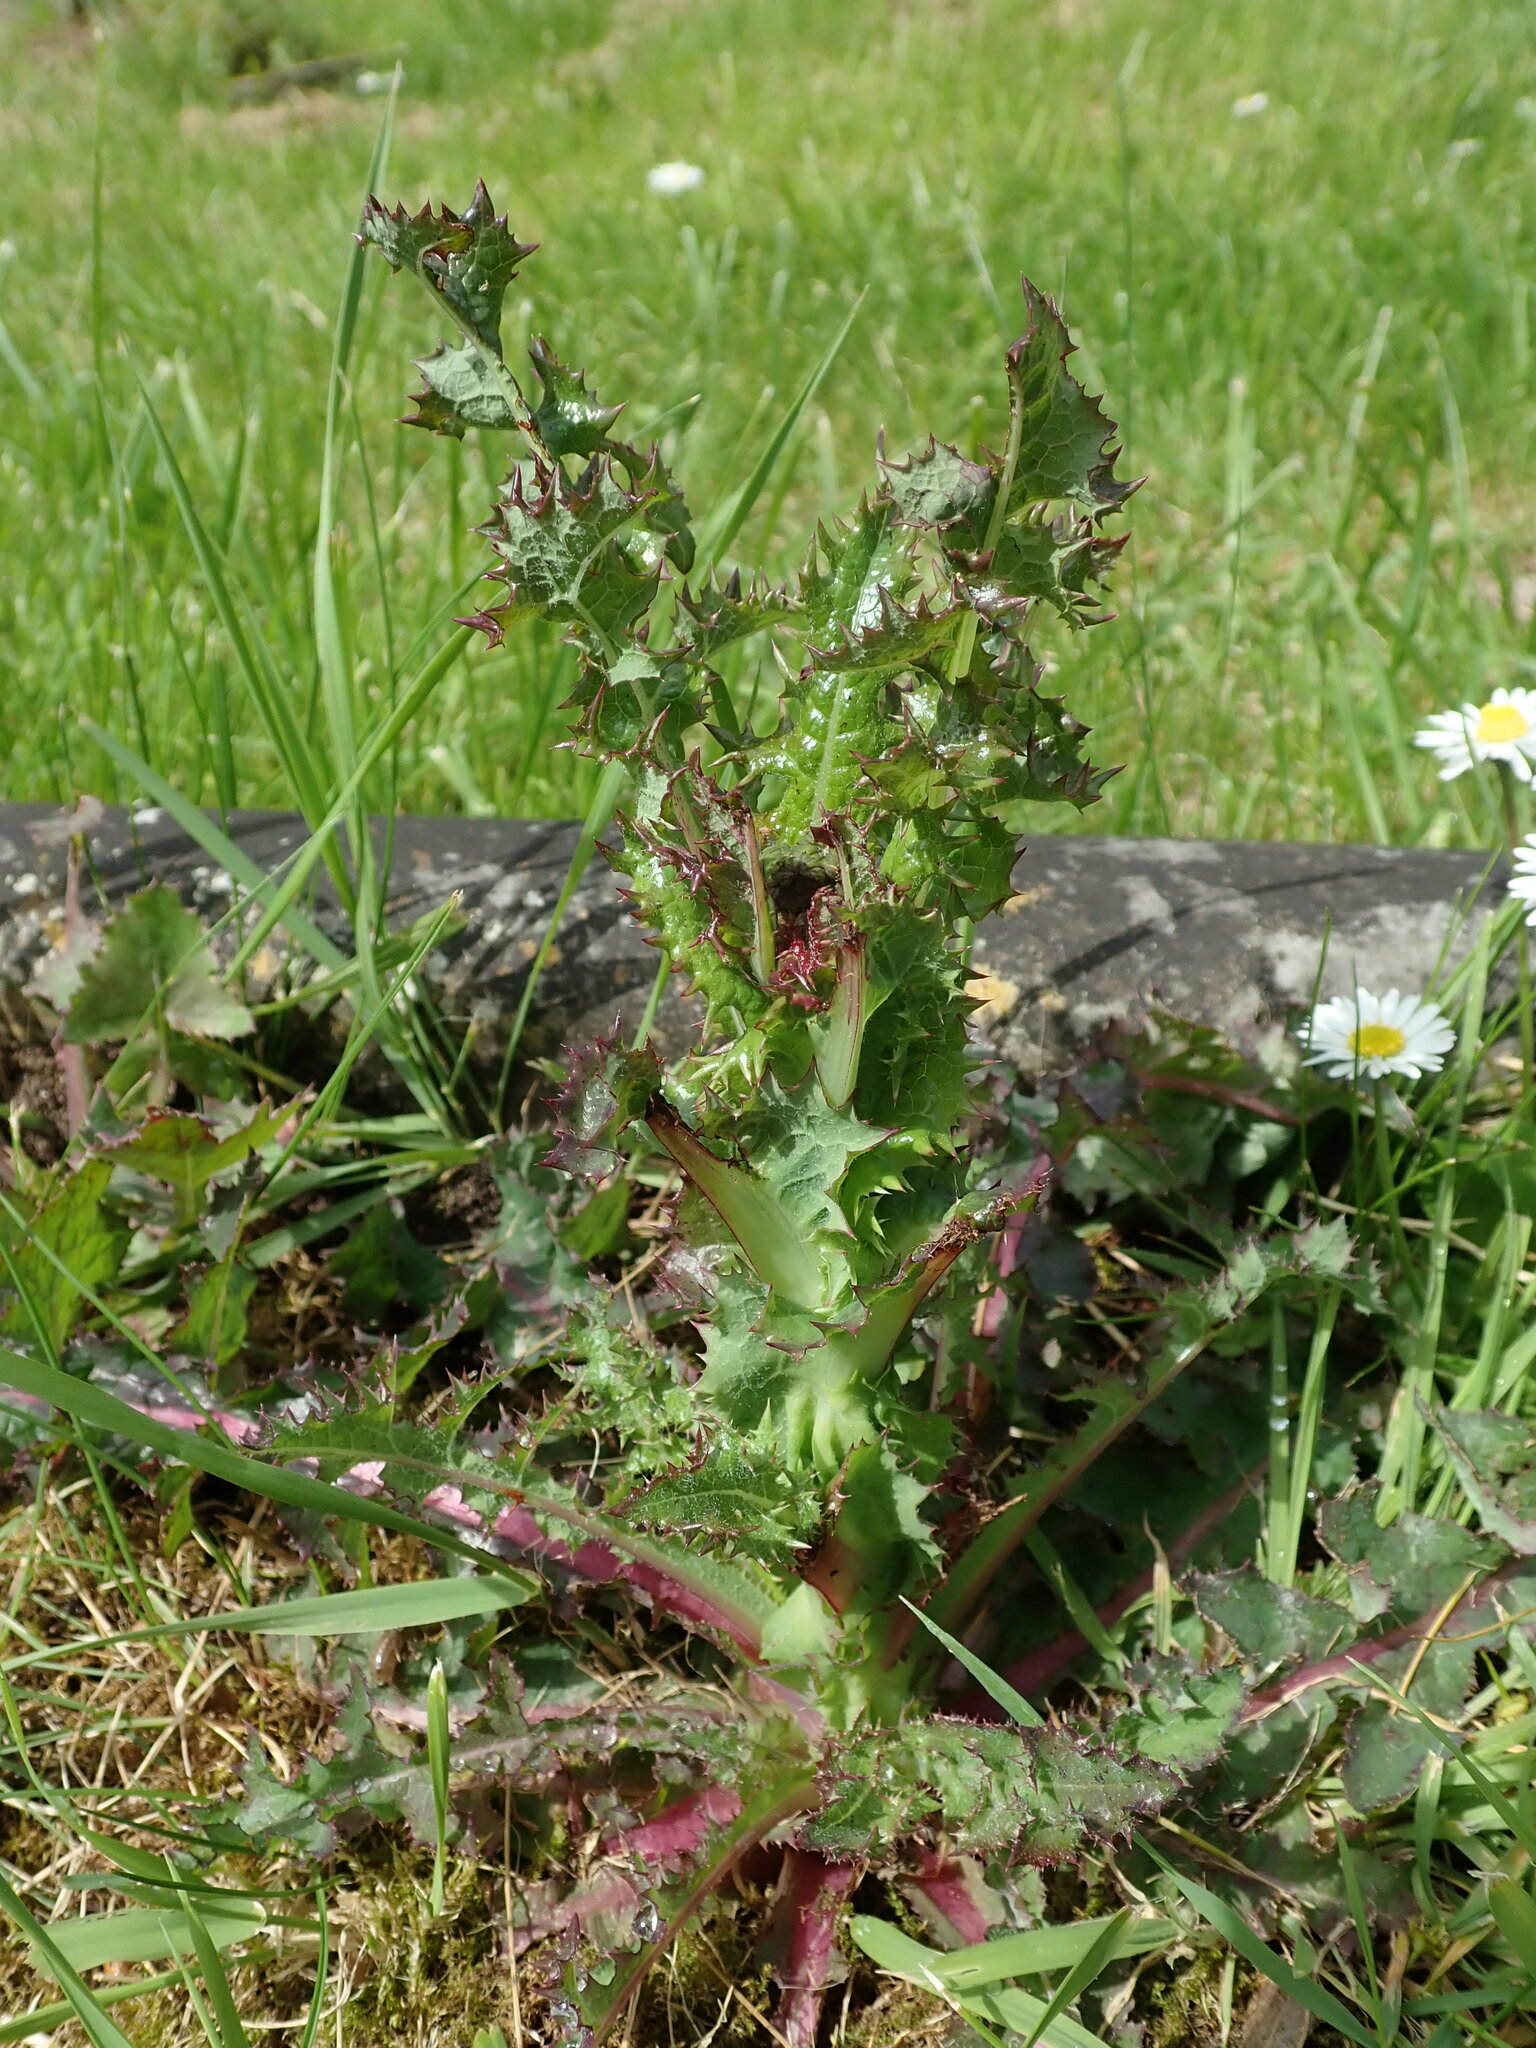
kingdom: Plantae
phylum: Tracheophyta
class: Magnoliopsida
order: Asterales
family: Asteraceae
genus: Sonchus
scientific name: Sonchus asper
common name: Prickly sow-thistle
